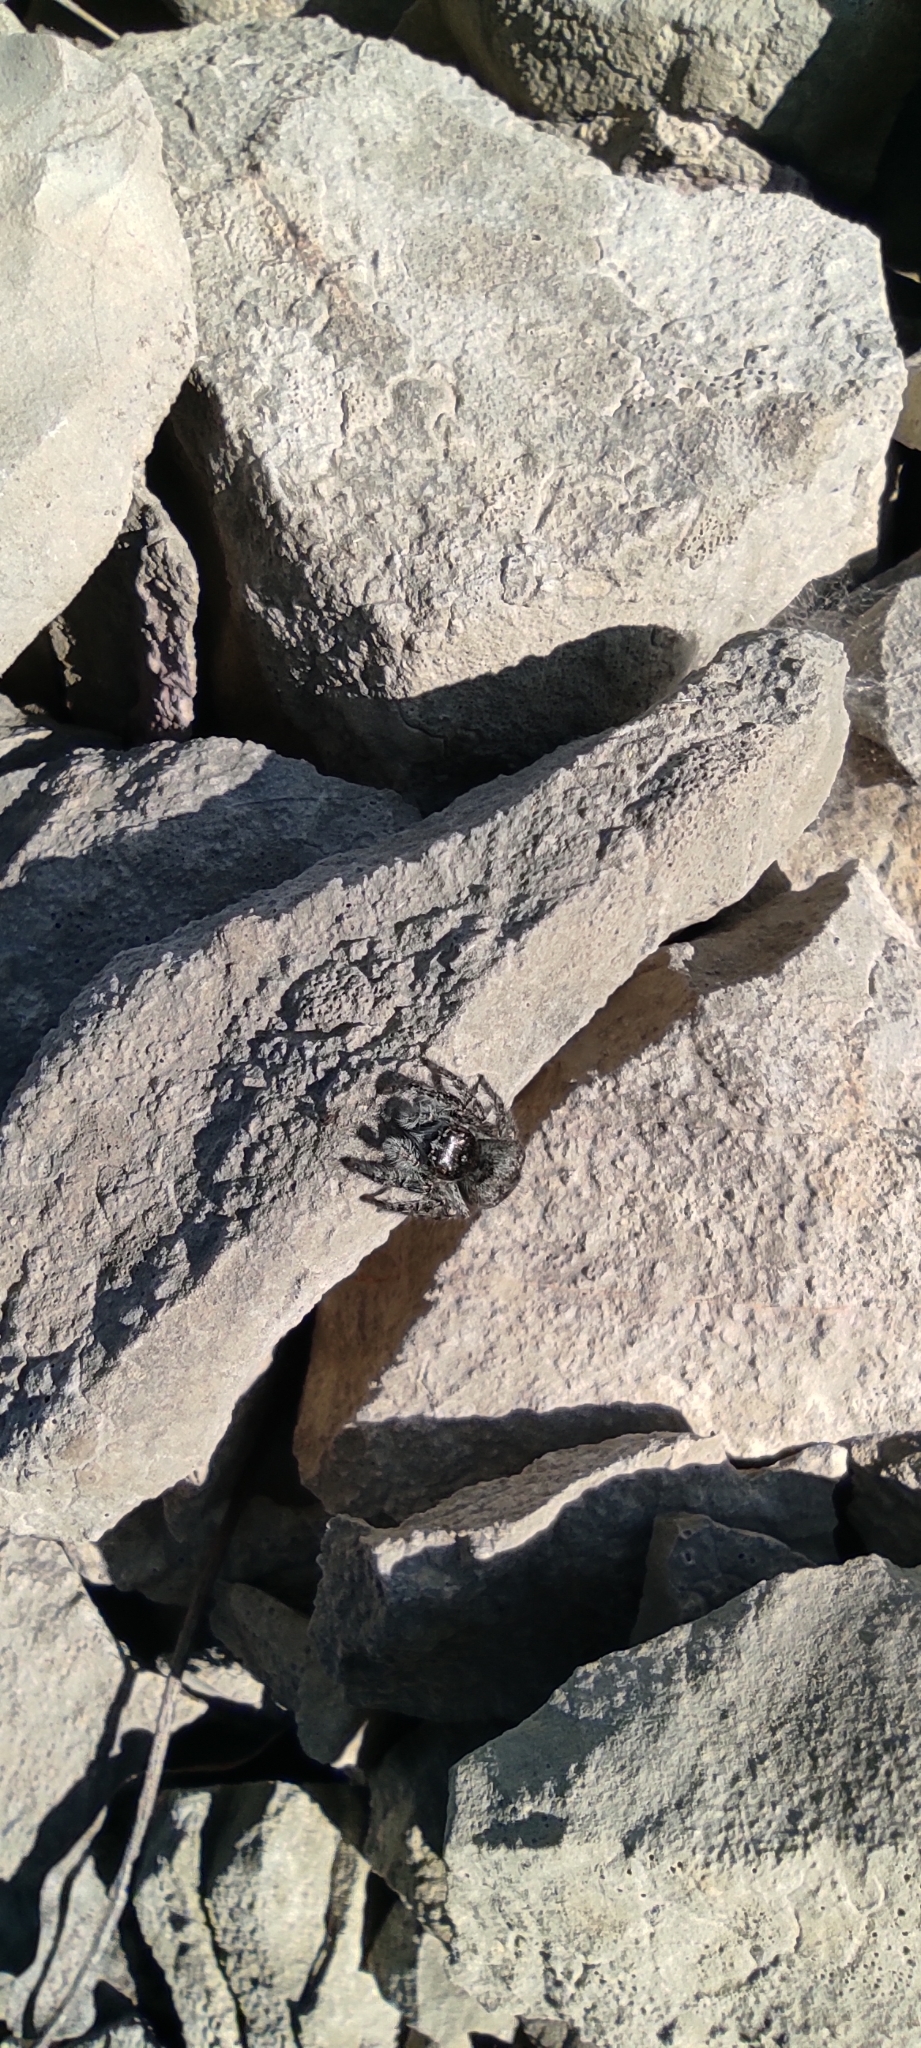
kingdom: Animalia
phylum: Arthropoda
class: Arachnida
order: Araneae
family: Salticidae
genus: Philaeus
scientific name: Philaeus chrysops
